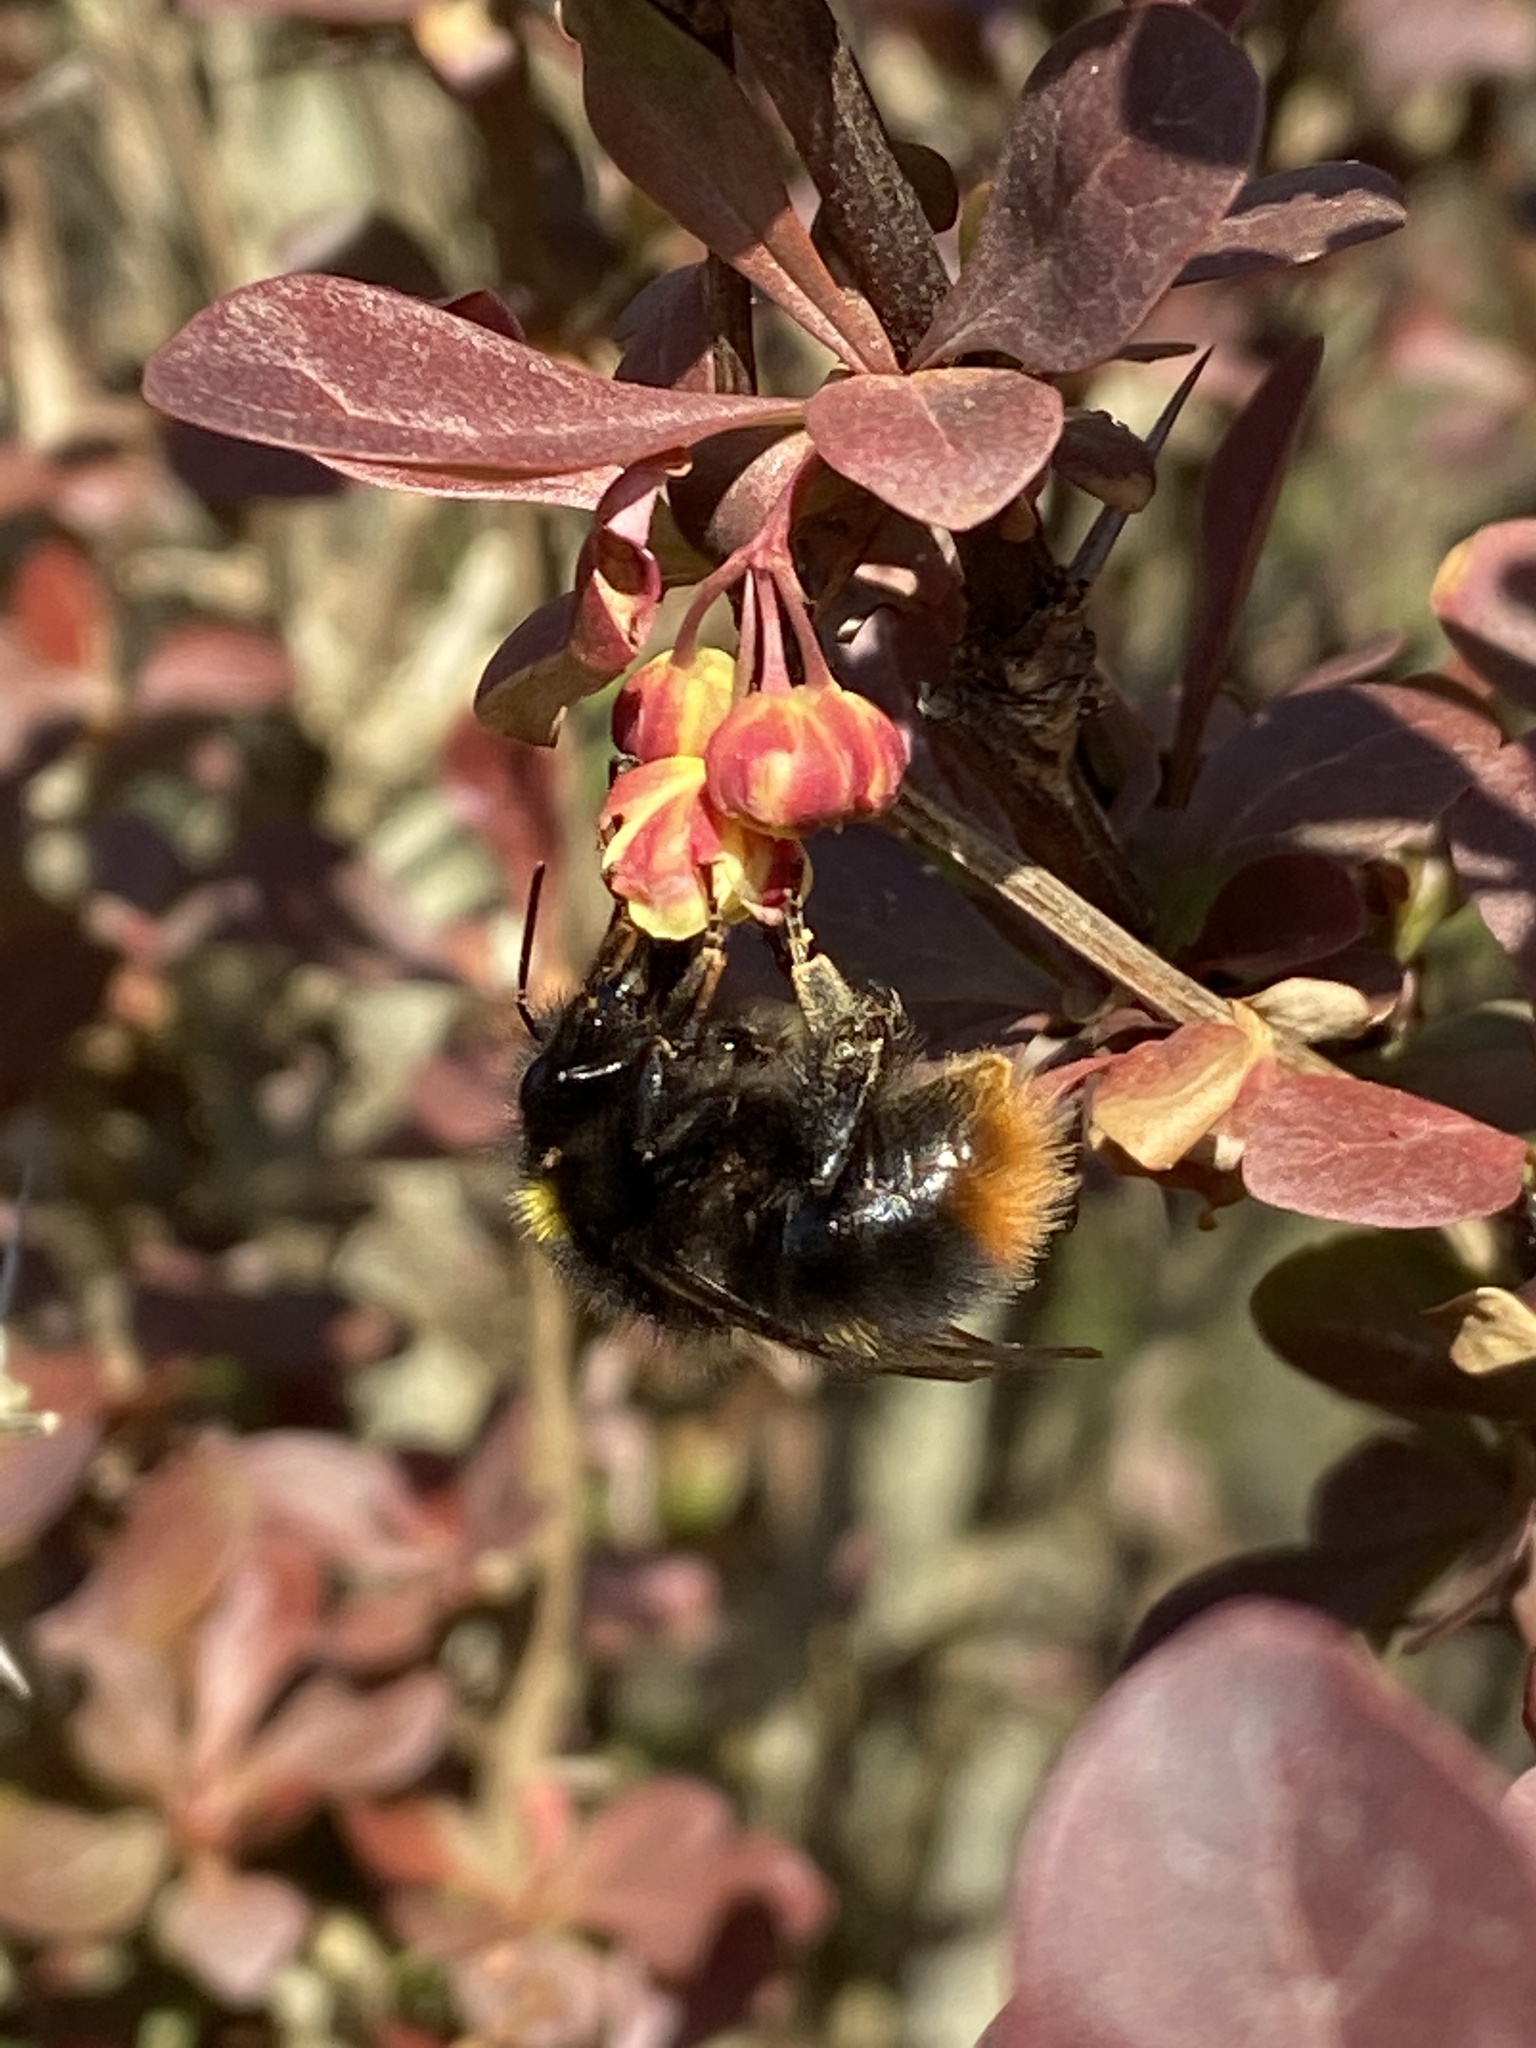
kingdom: Animalia
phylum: Arthropoda
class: Insecta
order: Hymenoptera
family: Apidae
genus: Bombus
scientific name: Bombus pratorum
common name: Early humble-bee
